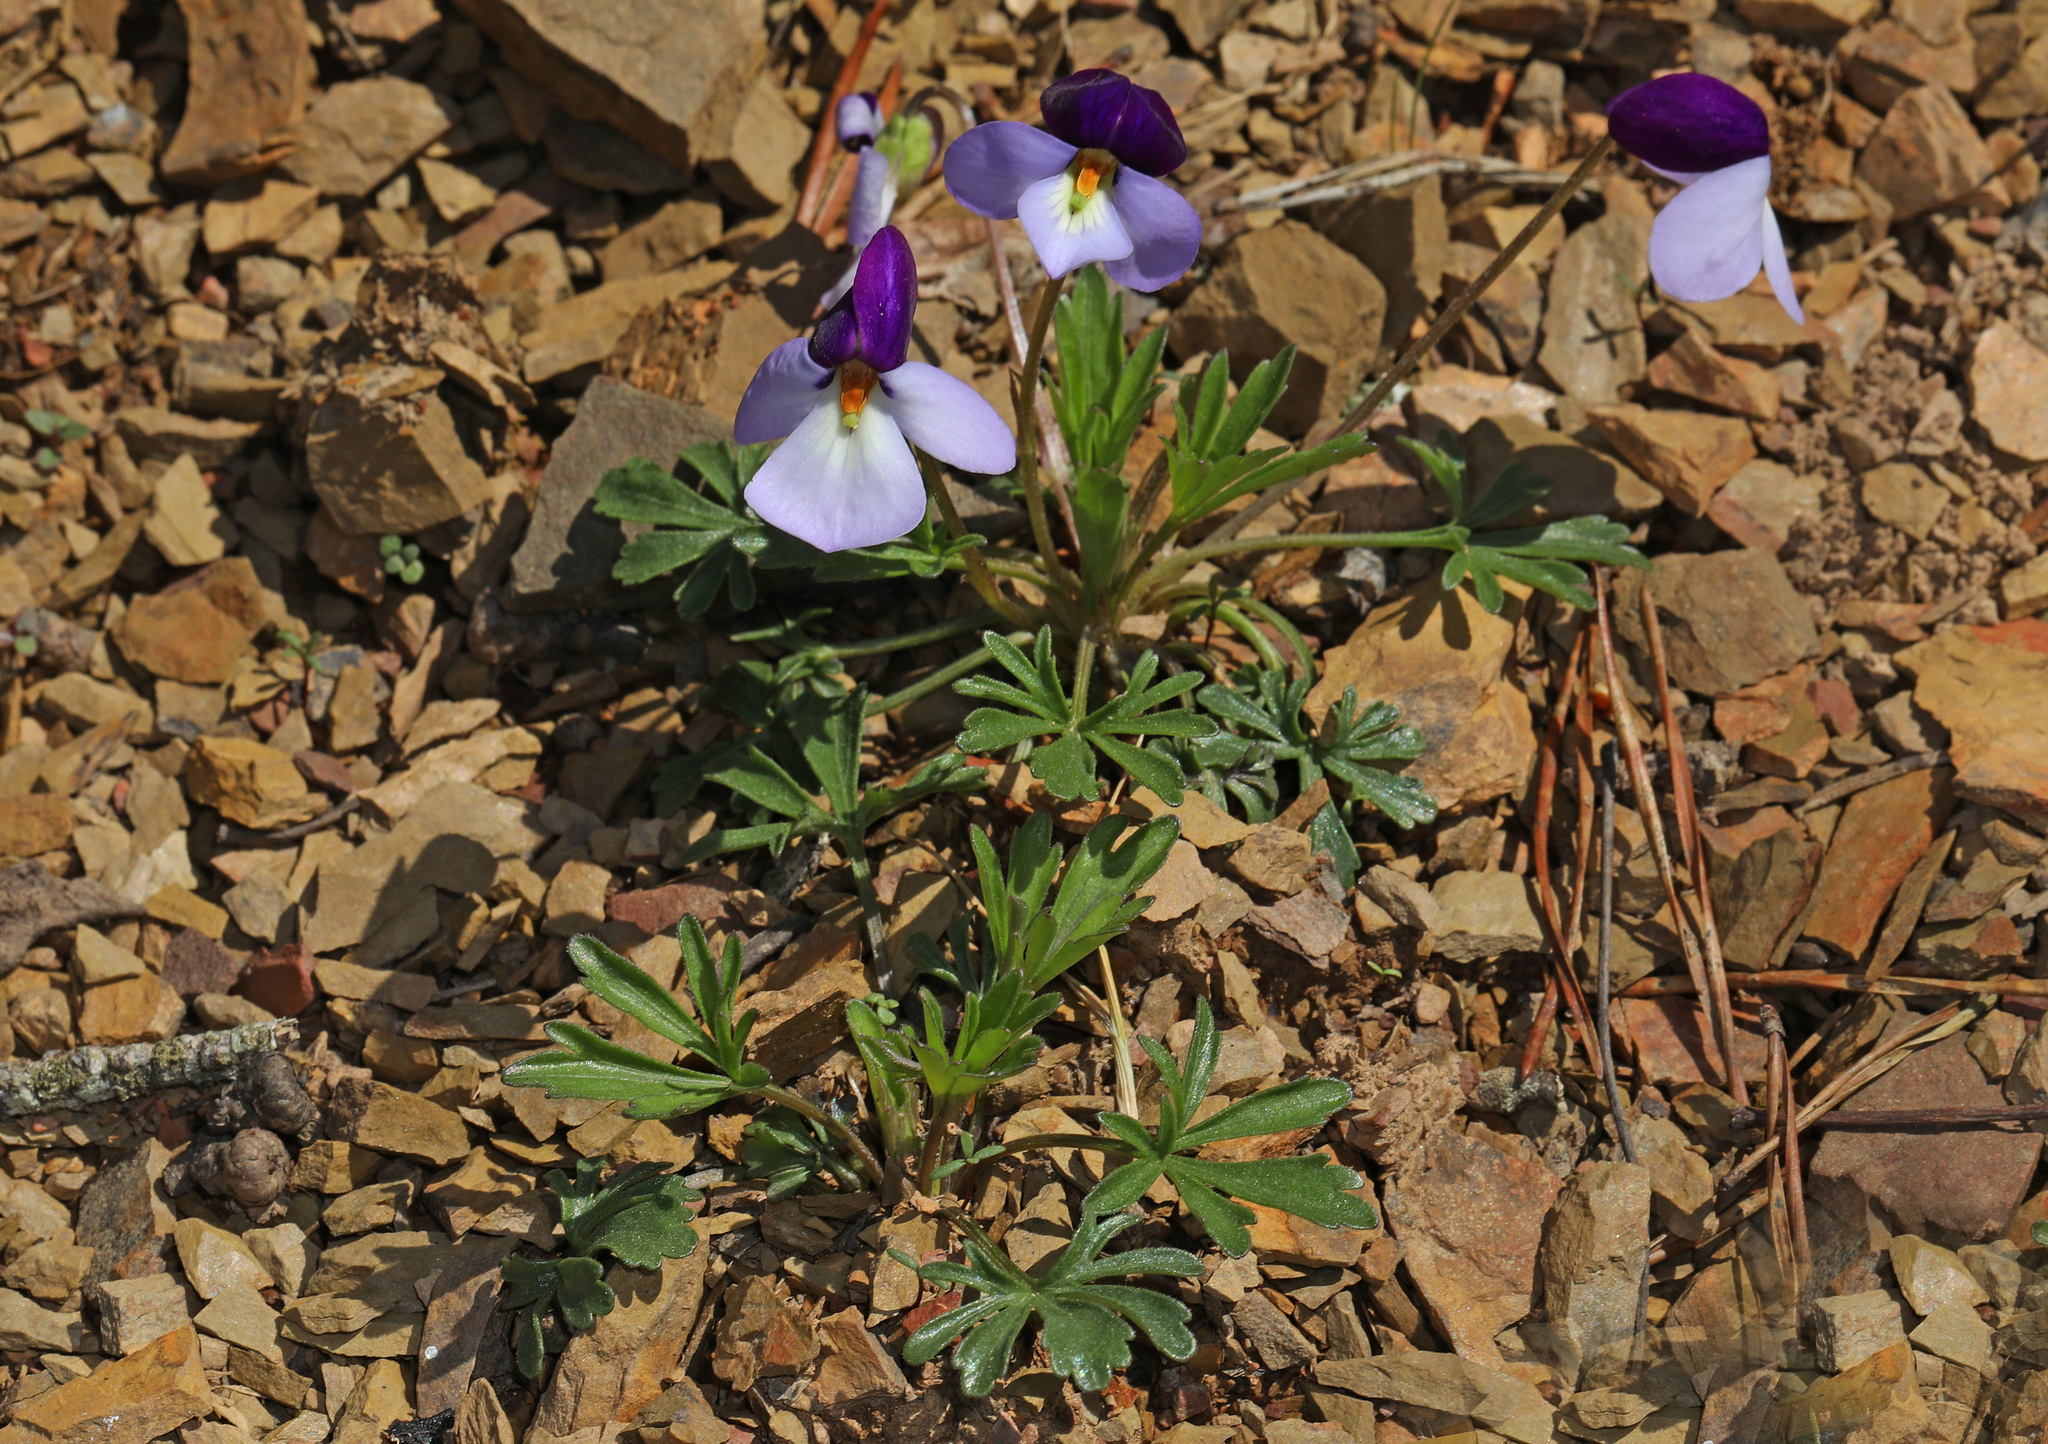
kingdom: Plantae
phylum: Tracheophyta
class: Magnoliopsida
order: Malpighiales
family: Violaceae
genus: Viola
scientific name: Viola pedata
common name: Pansy violet
